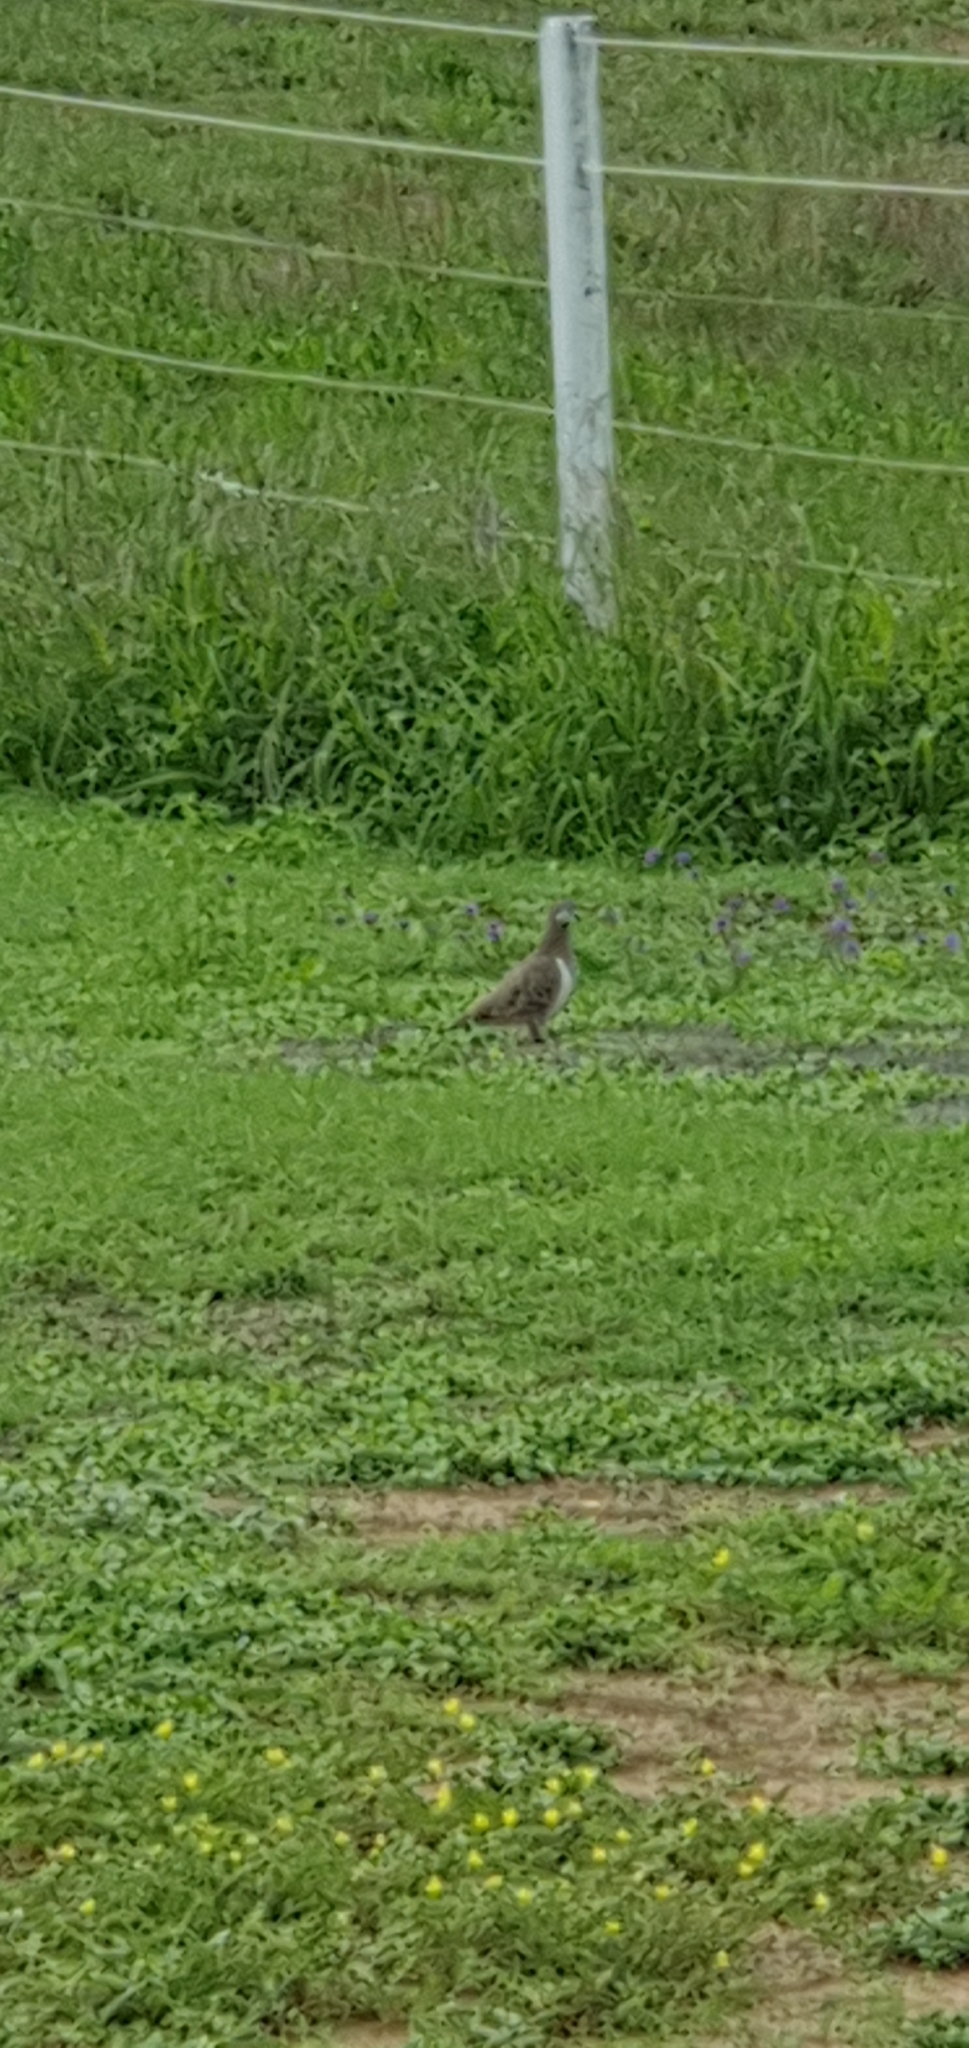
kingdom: Animalia
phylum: Chordata
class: Aves
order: Columbiformes
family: Columbidae
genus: Geophaps
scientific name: Geophaps scripta
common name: Squatter pigeon
